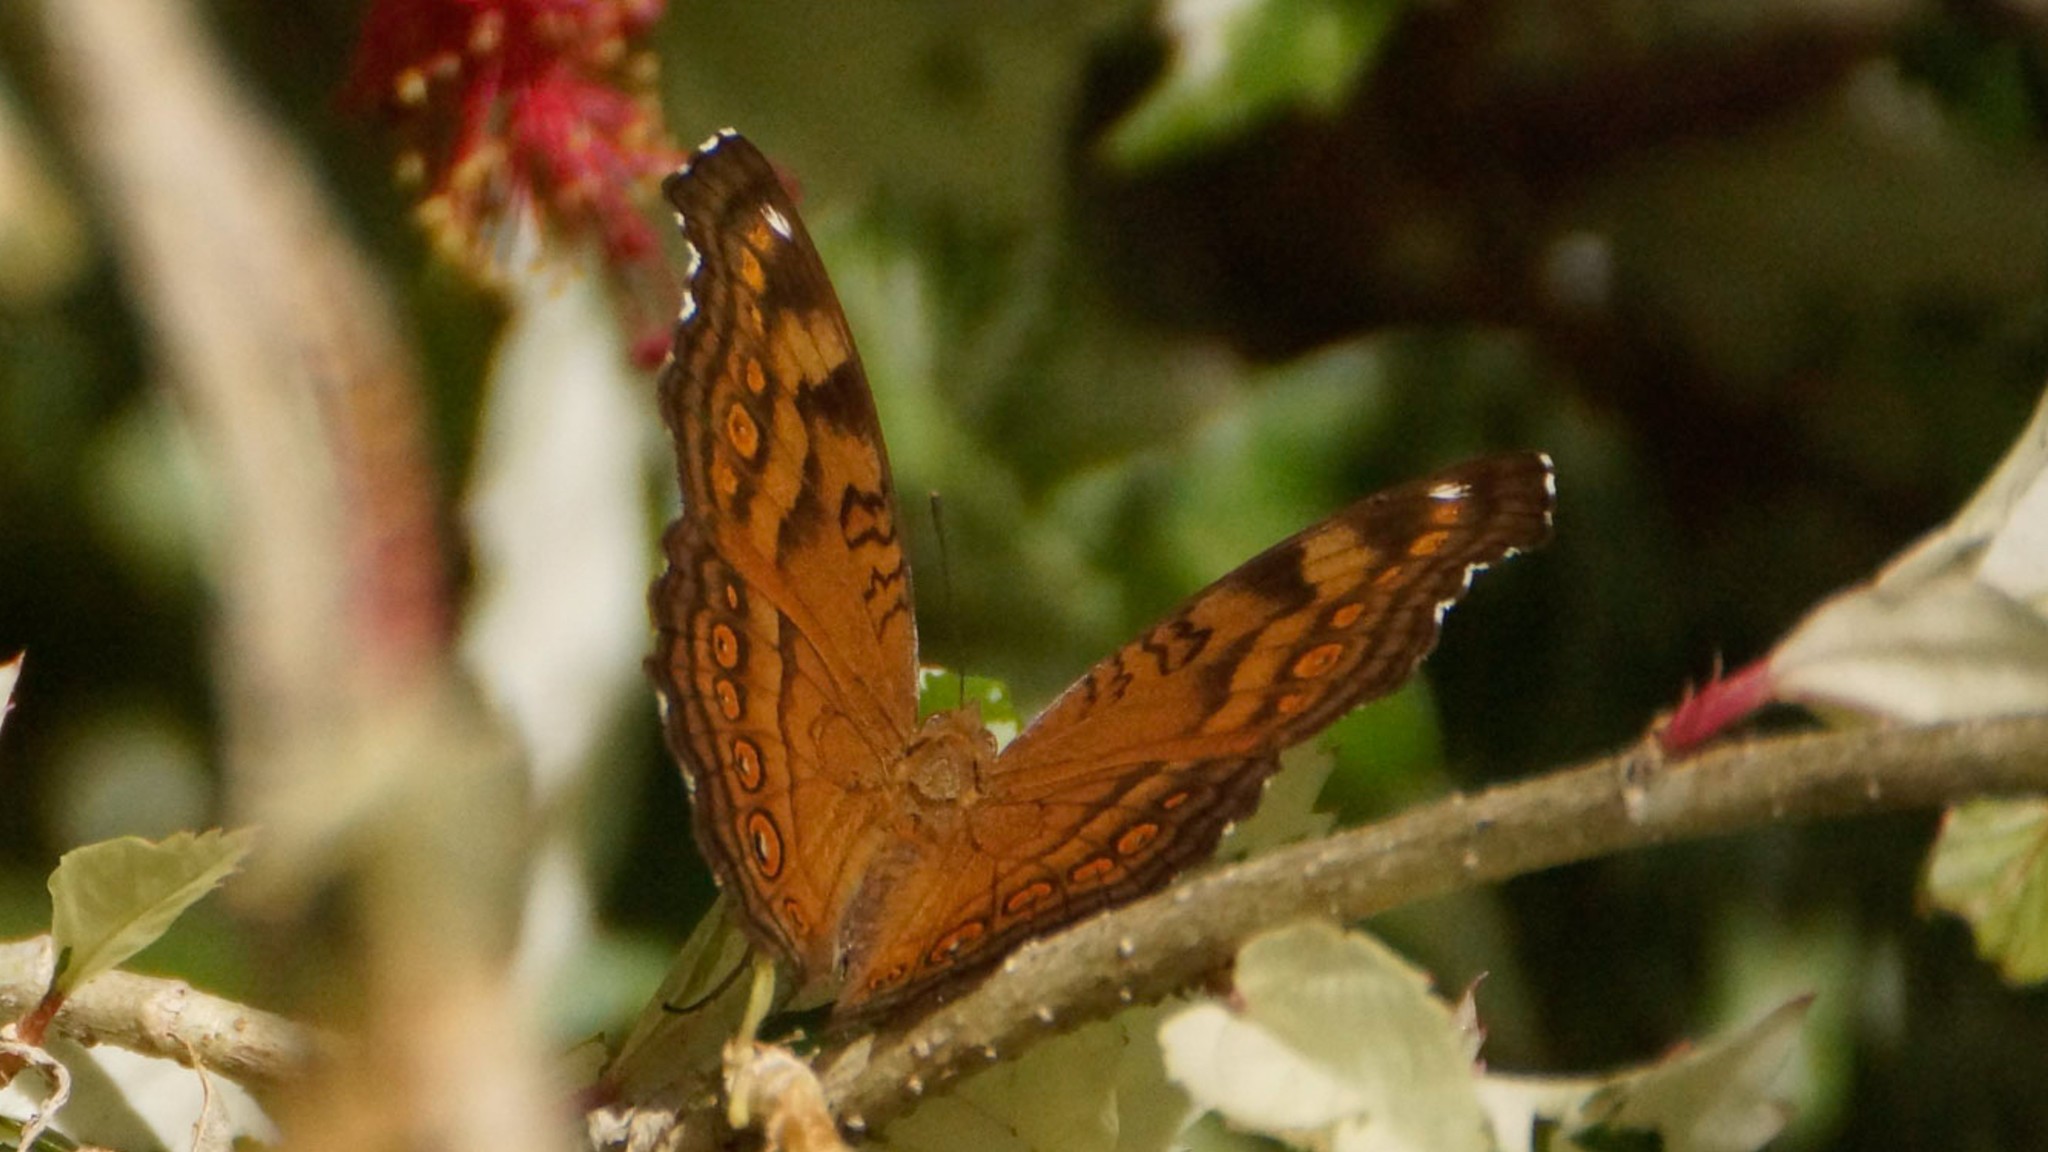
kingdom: Animalia
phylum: Arthropoda
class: Insecta
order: Lepidoptera
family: Nymphalidae
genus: Junonia
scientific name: Junonia hedonia
